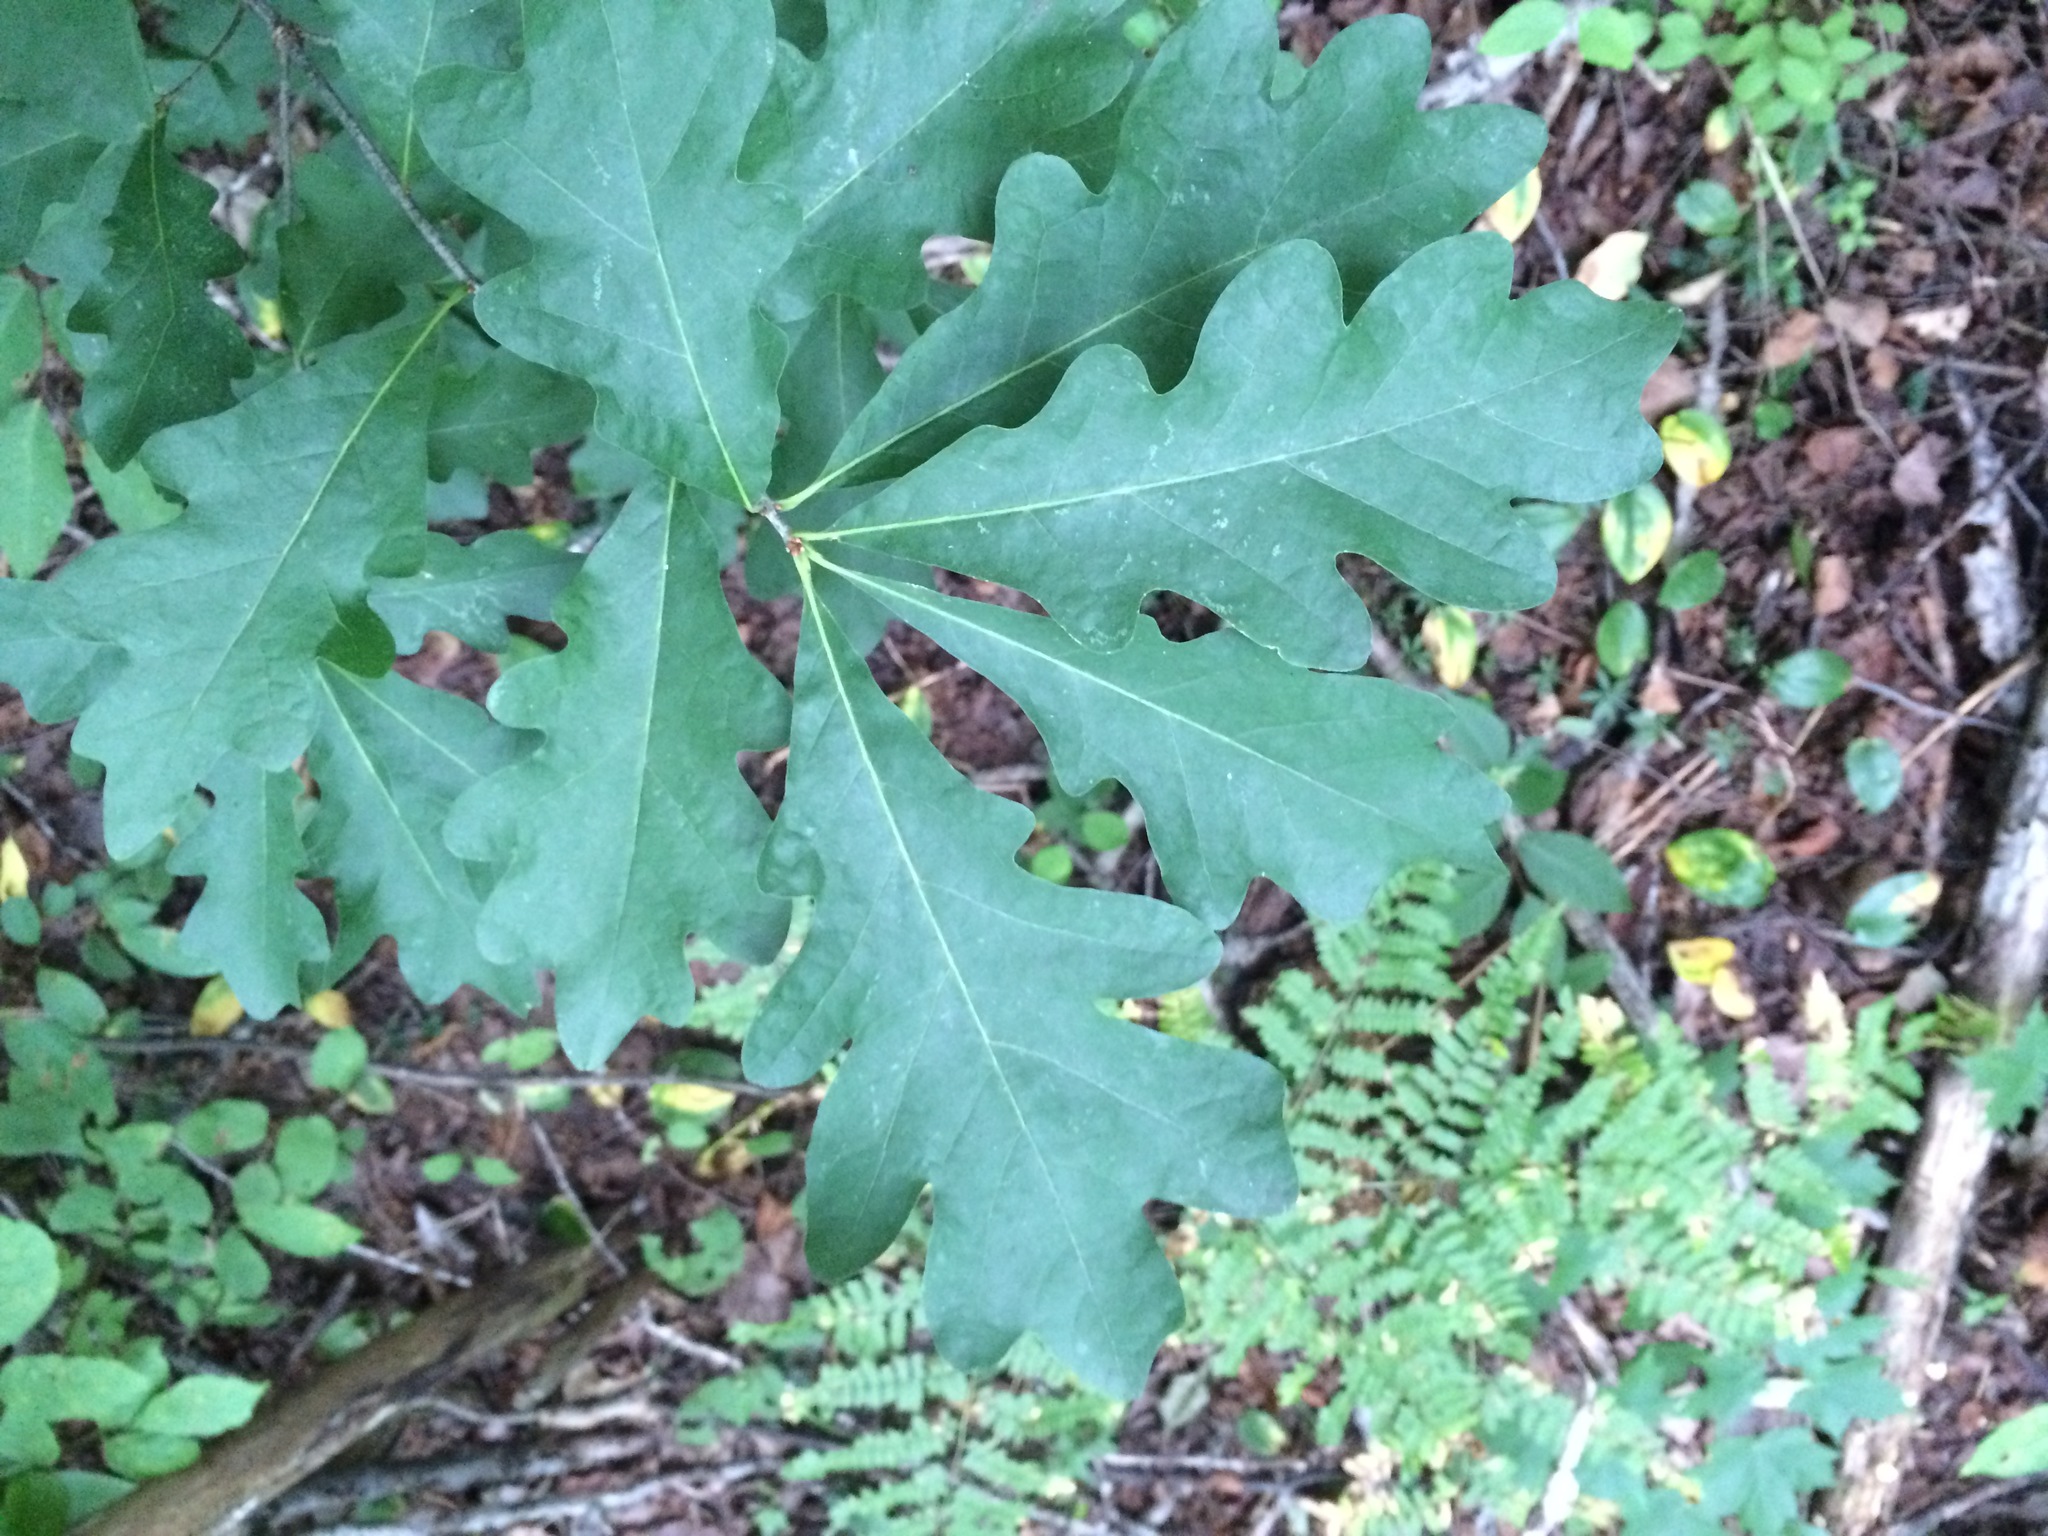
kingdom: Plantae
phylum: Tracheophyta
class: Magnoliopsida
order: Fagales
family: Fagaceae
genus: Quercus
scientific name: Quercus alba
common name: White oak
